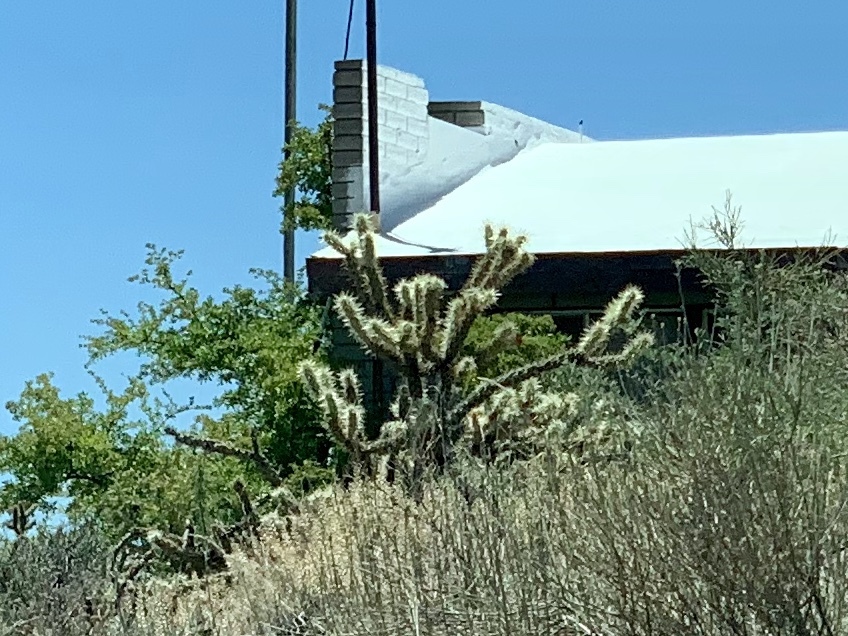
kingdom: Plantae
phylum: Tracheophyta
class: Magnoliopsida
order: Caryophyllales
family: Cactaceae
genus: Cylindropuntia
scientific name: Cylindropuntia acanthocarpa
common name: Buckhorn cholla
